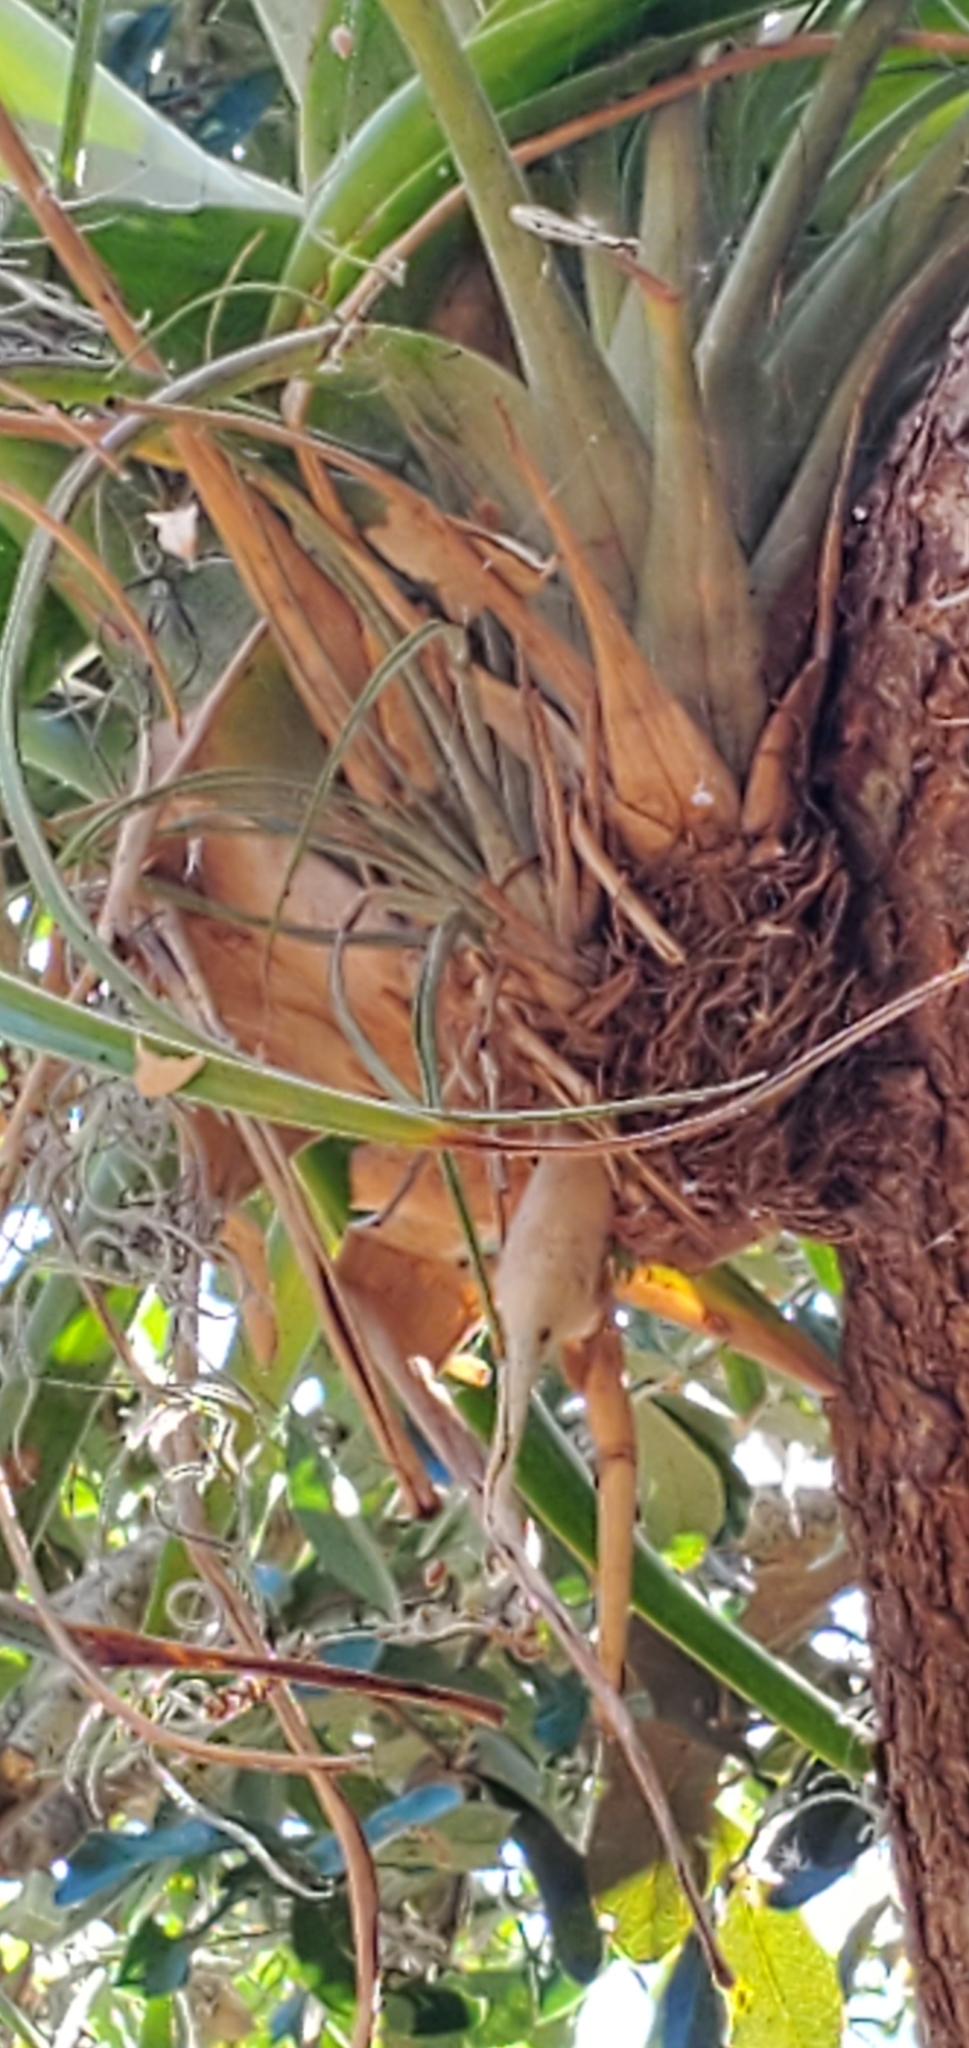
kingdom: Plantae
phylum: Tracheophyta
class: Liliopsida
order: Poales
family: Bromeliaceae
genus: Tillandsia
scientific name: Tillandsia utriculata
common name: Wild pine
